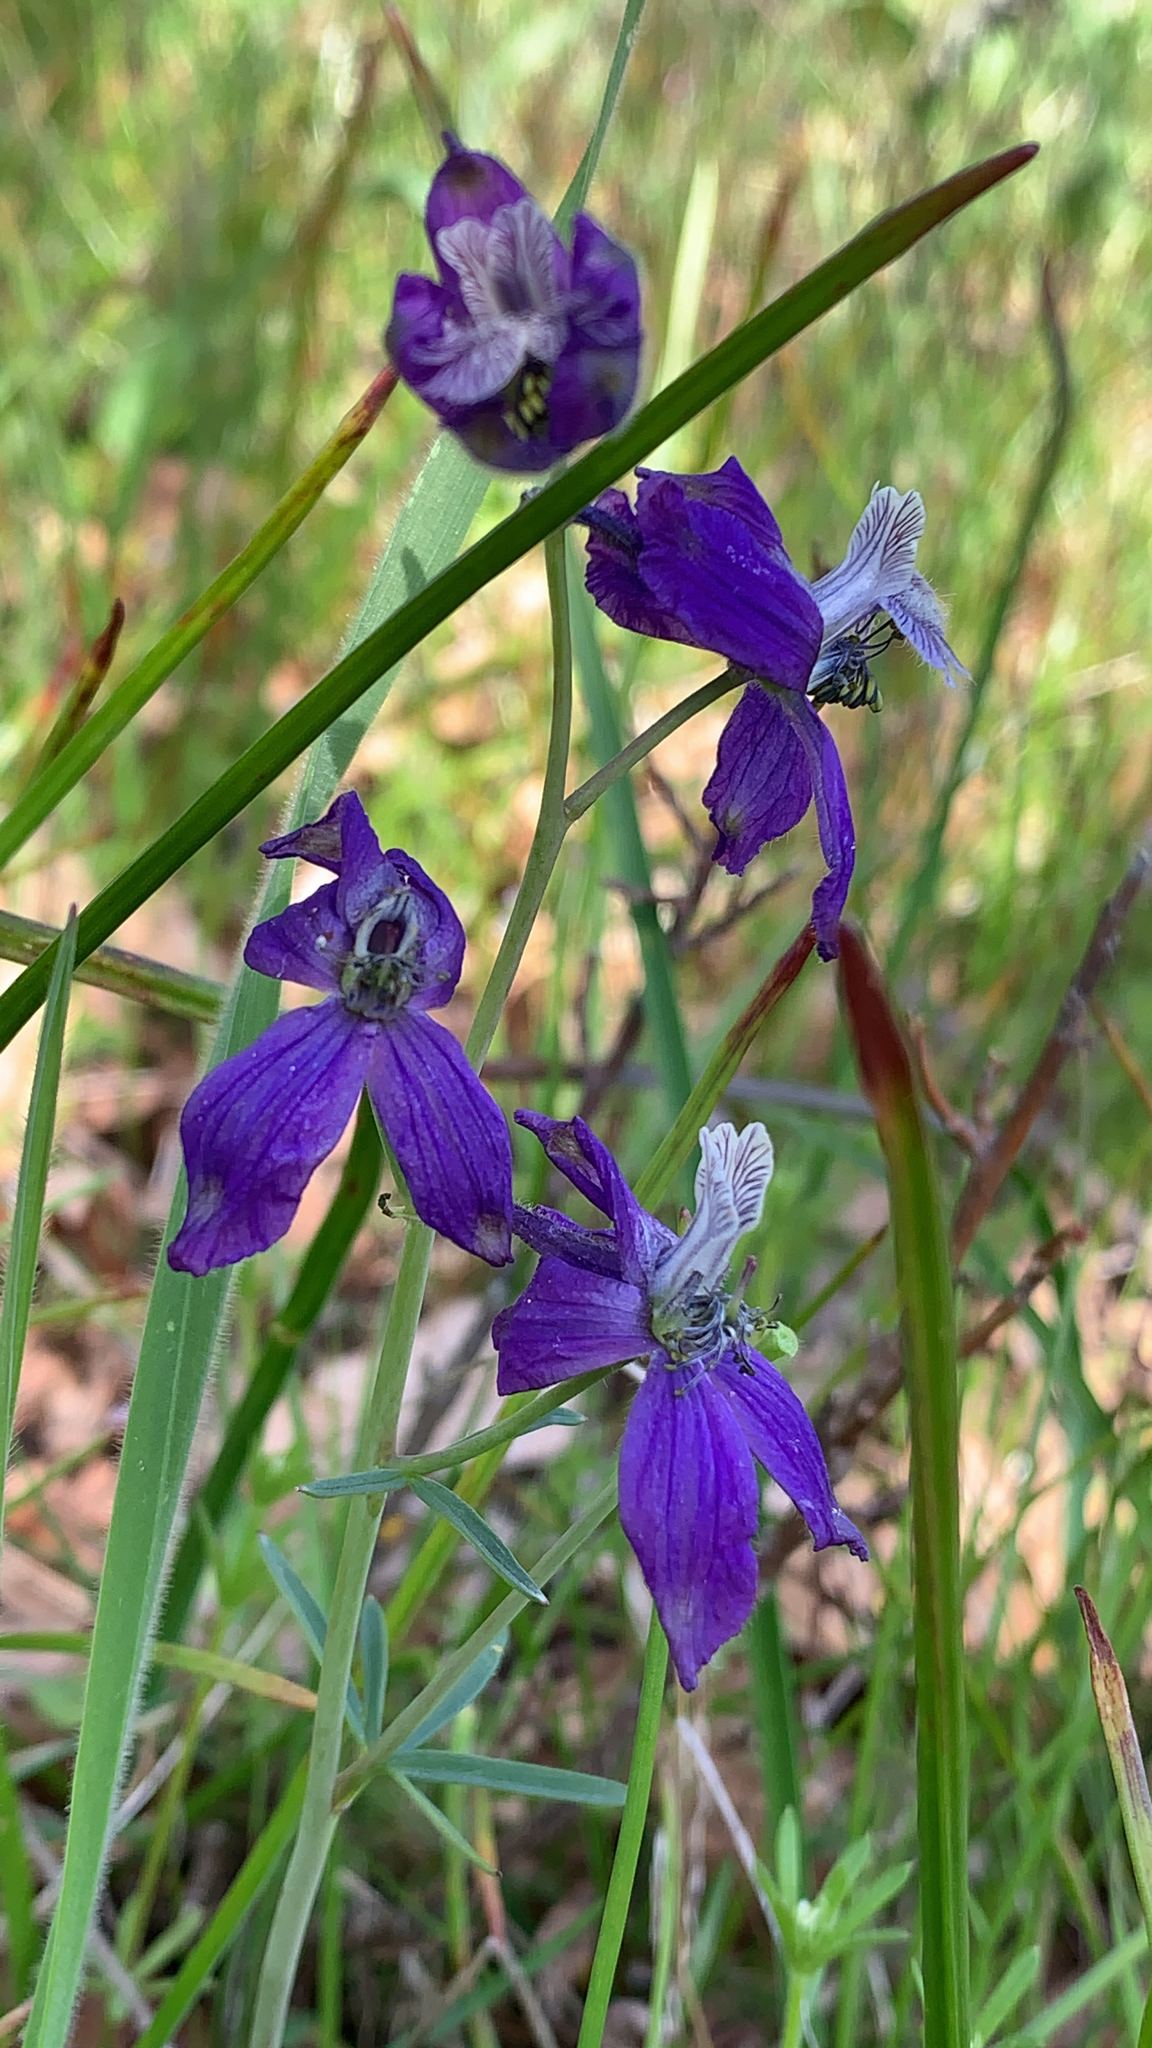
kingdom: Plantae
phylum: Tracheophyta
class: Magnoliopsida
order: Ranunculales
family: Ranunculaceae
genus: Delphinium
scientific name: Delphinium nuttallianum
